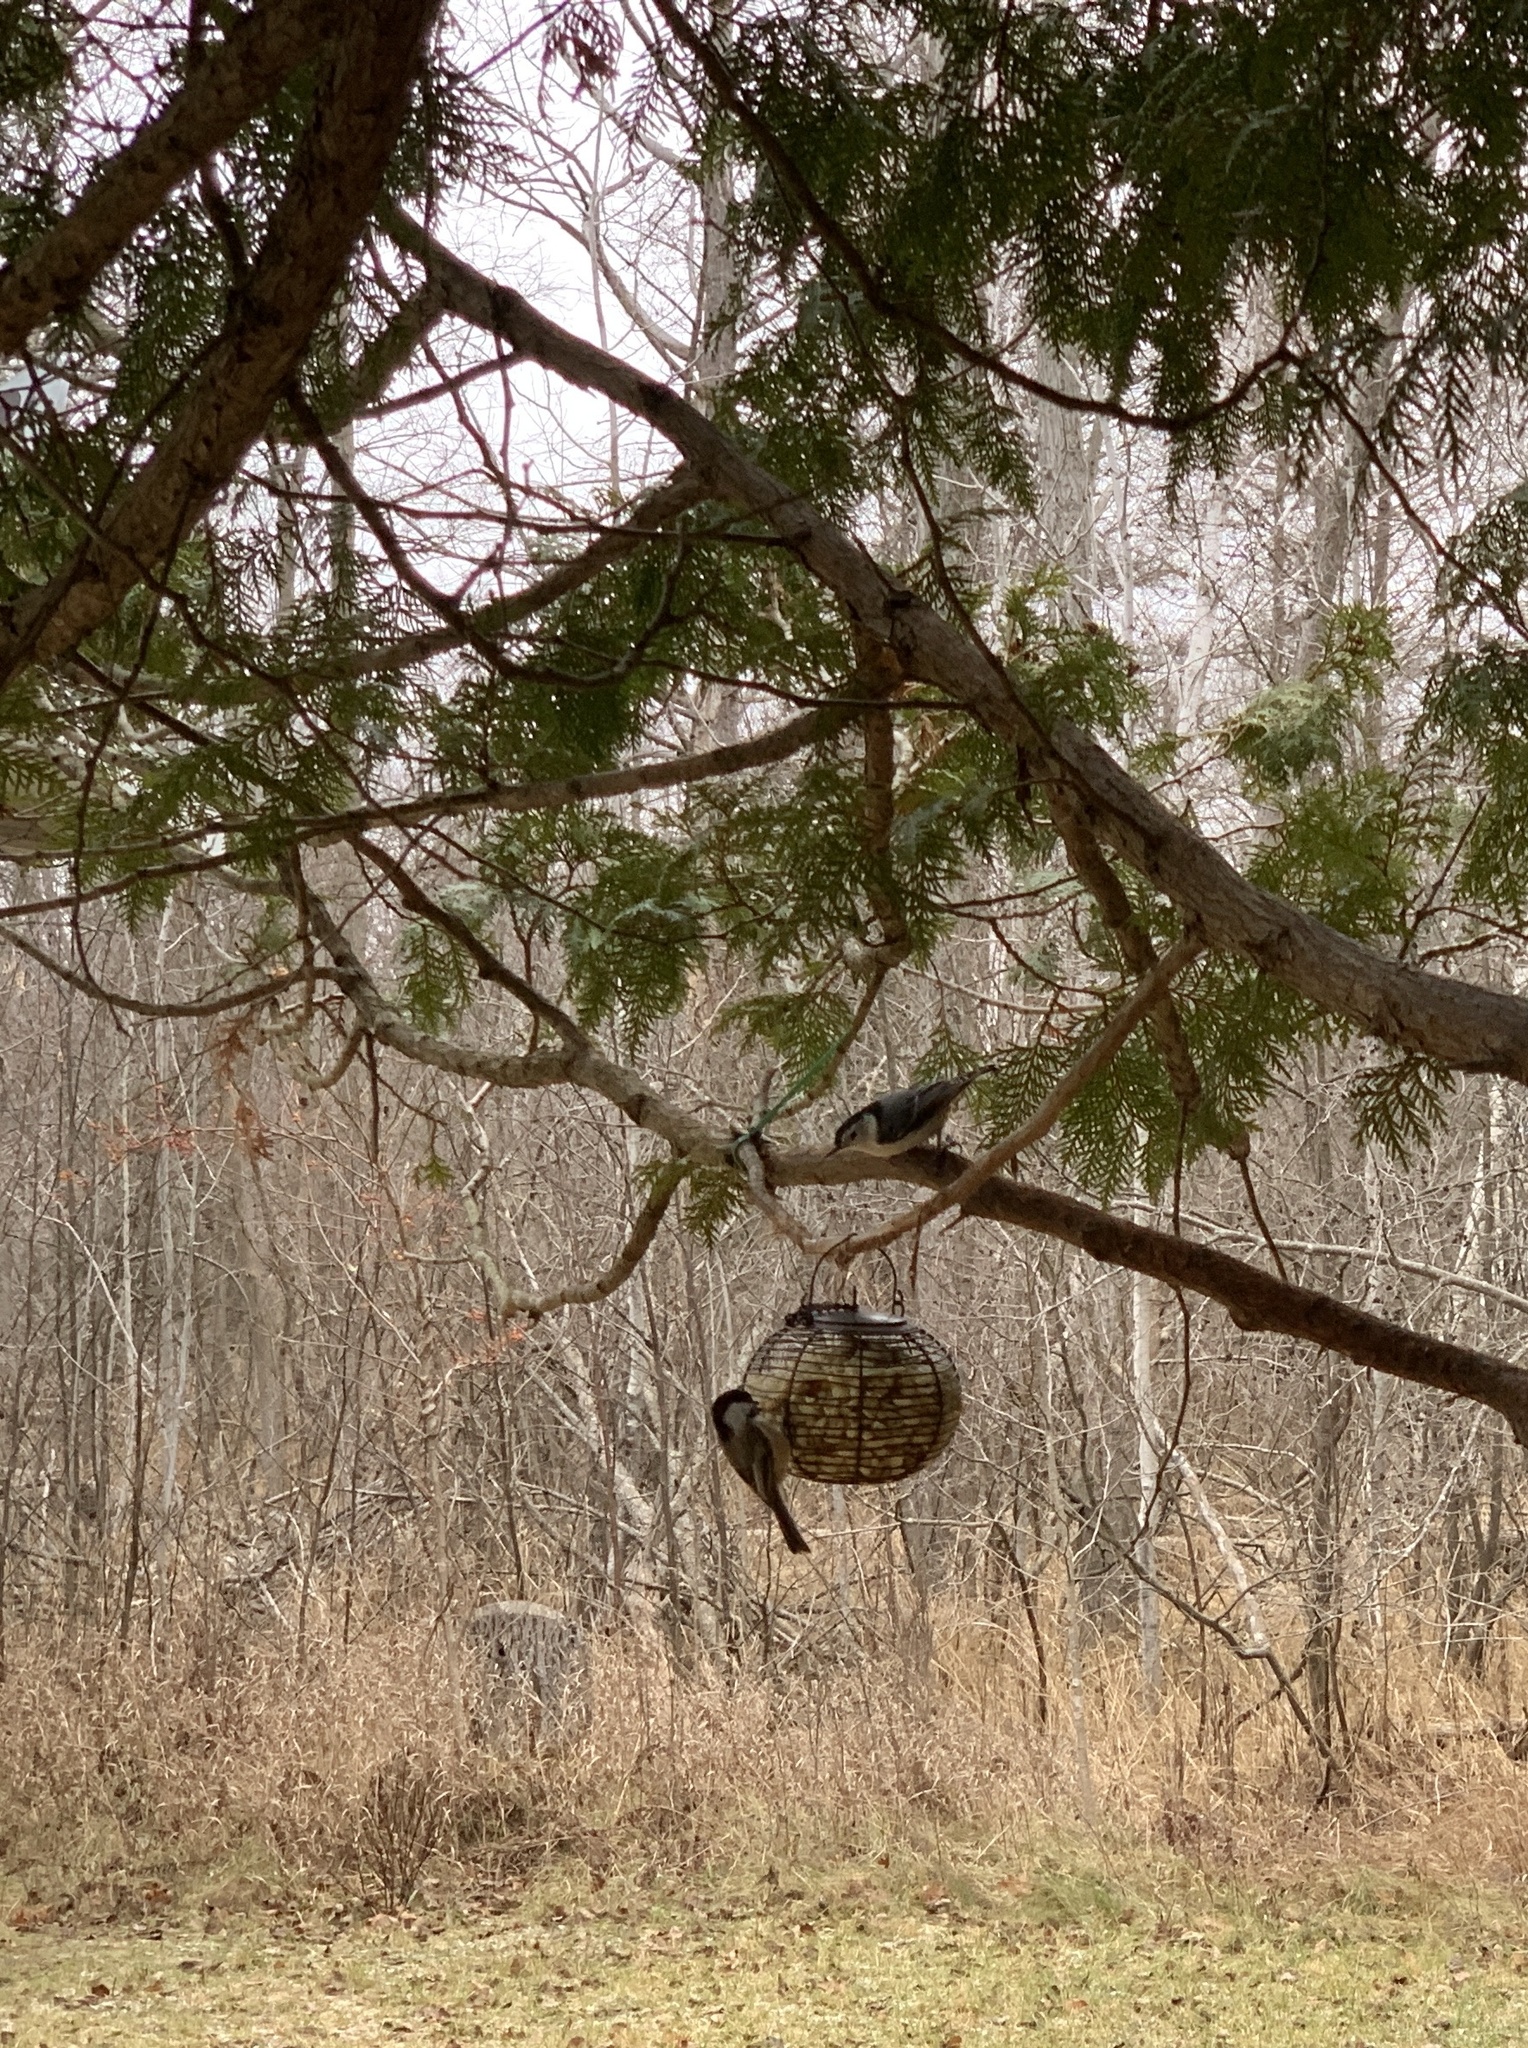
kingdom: Animalia
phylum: Chordata
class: Aves
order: Passeriformes
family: Sittidae
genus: Sitta
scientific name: Sitta carolinensis
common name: White-breasted nuthatch
